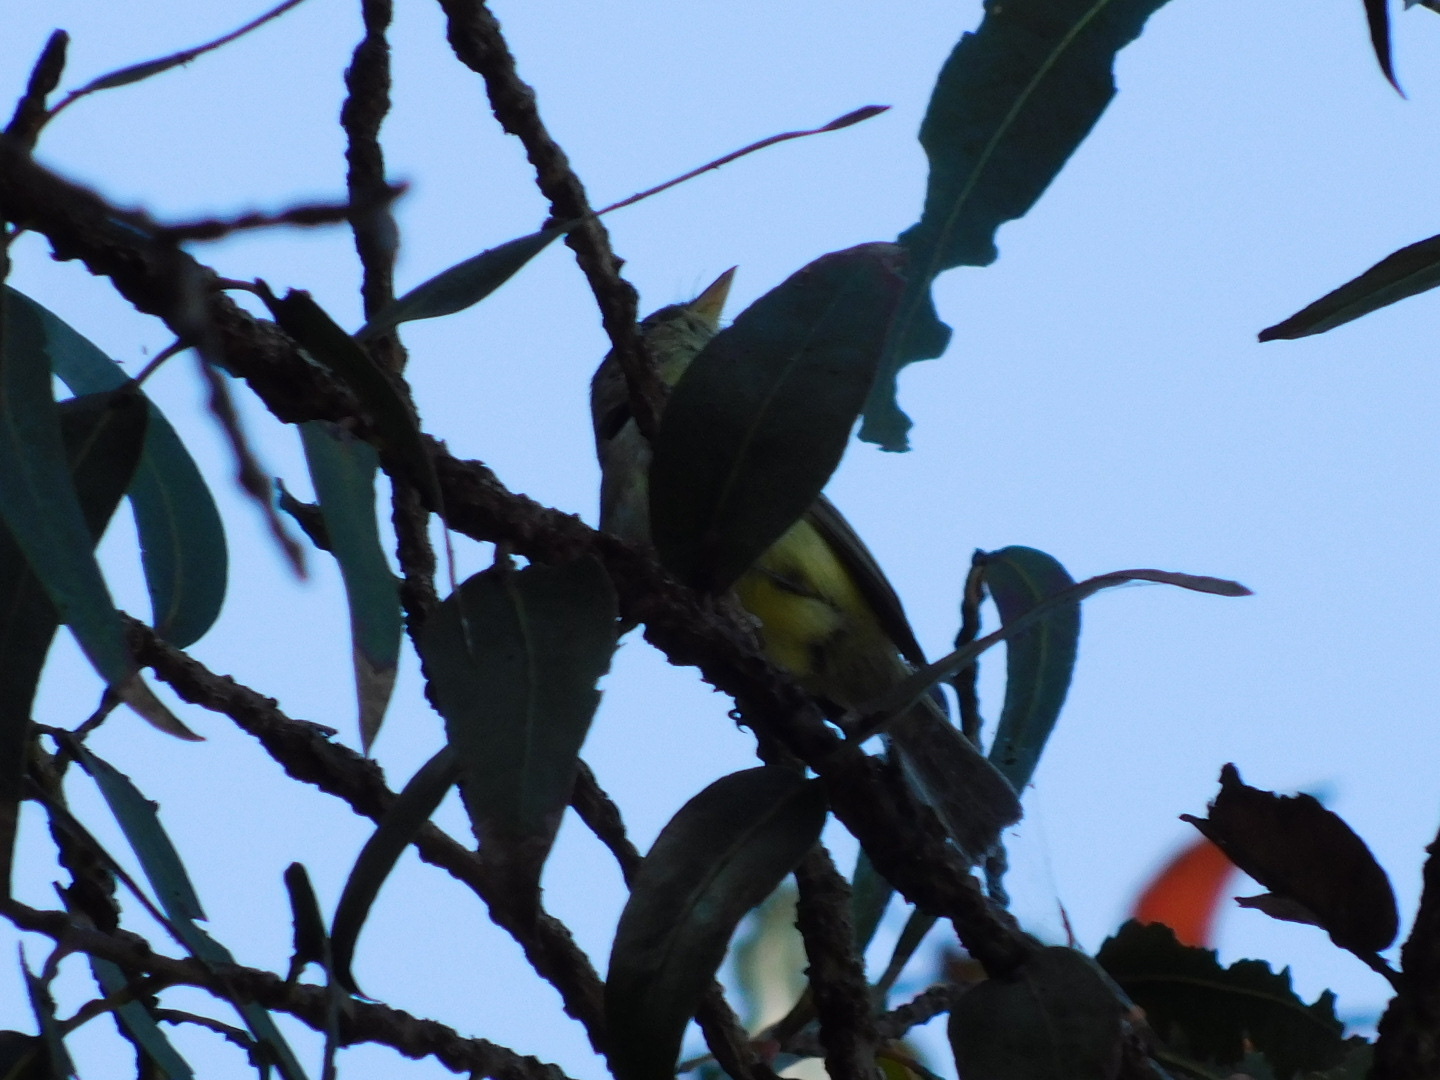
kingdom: Animalia
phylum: Chordata
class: Aves
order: Passeriformes
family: Tyrannidae
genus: Empidonax
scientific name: Empidonax difficilis
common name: Pacific-slope flycatcher
